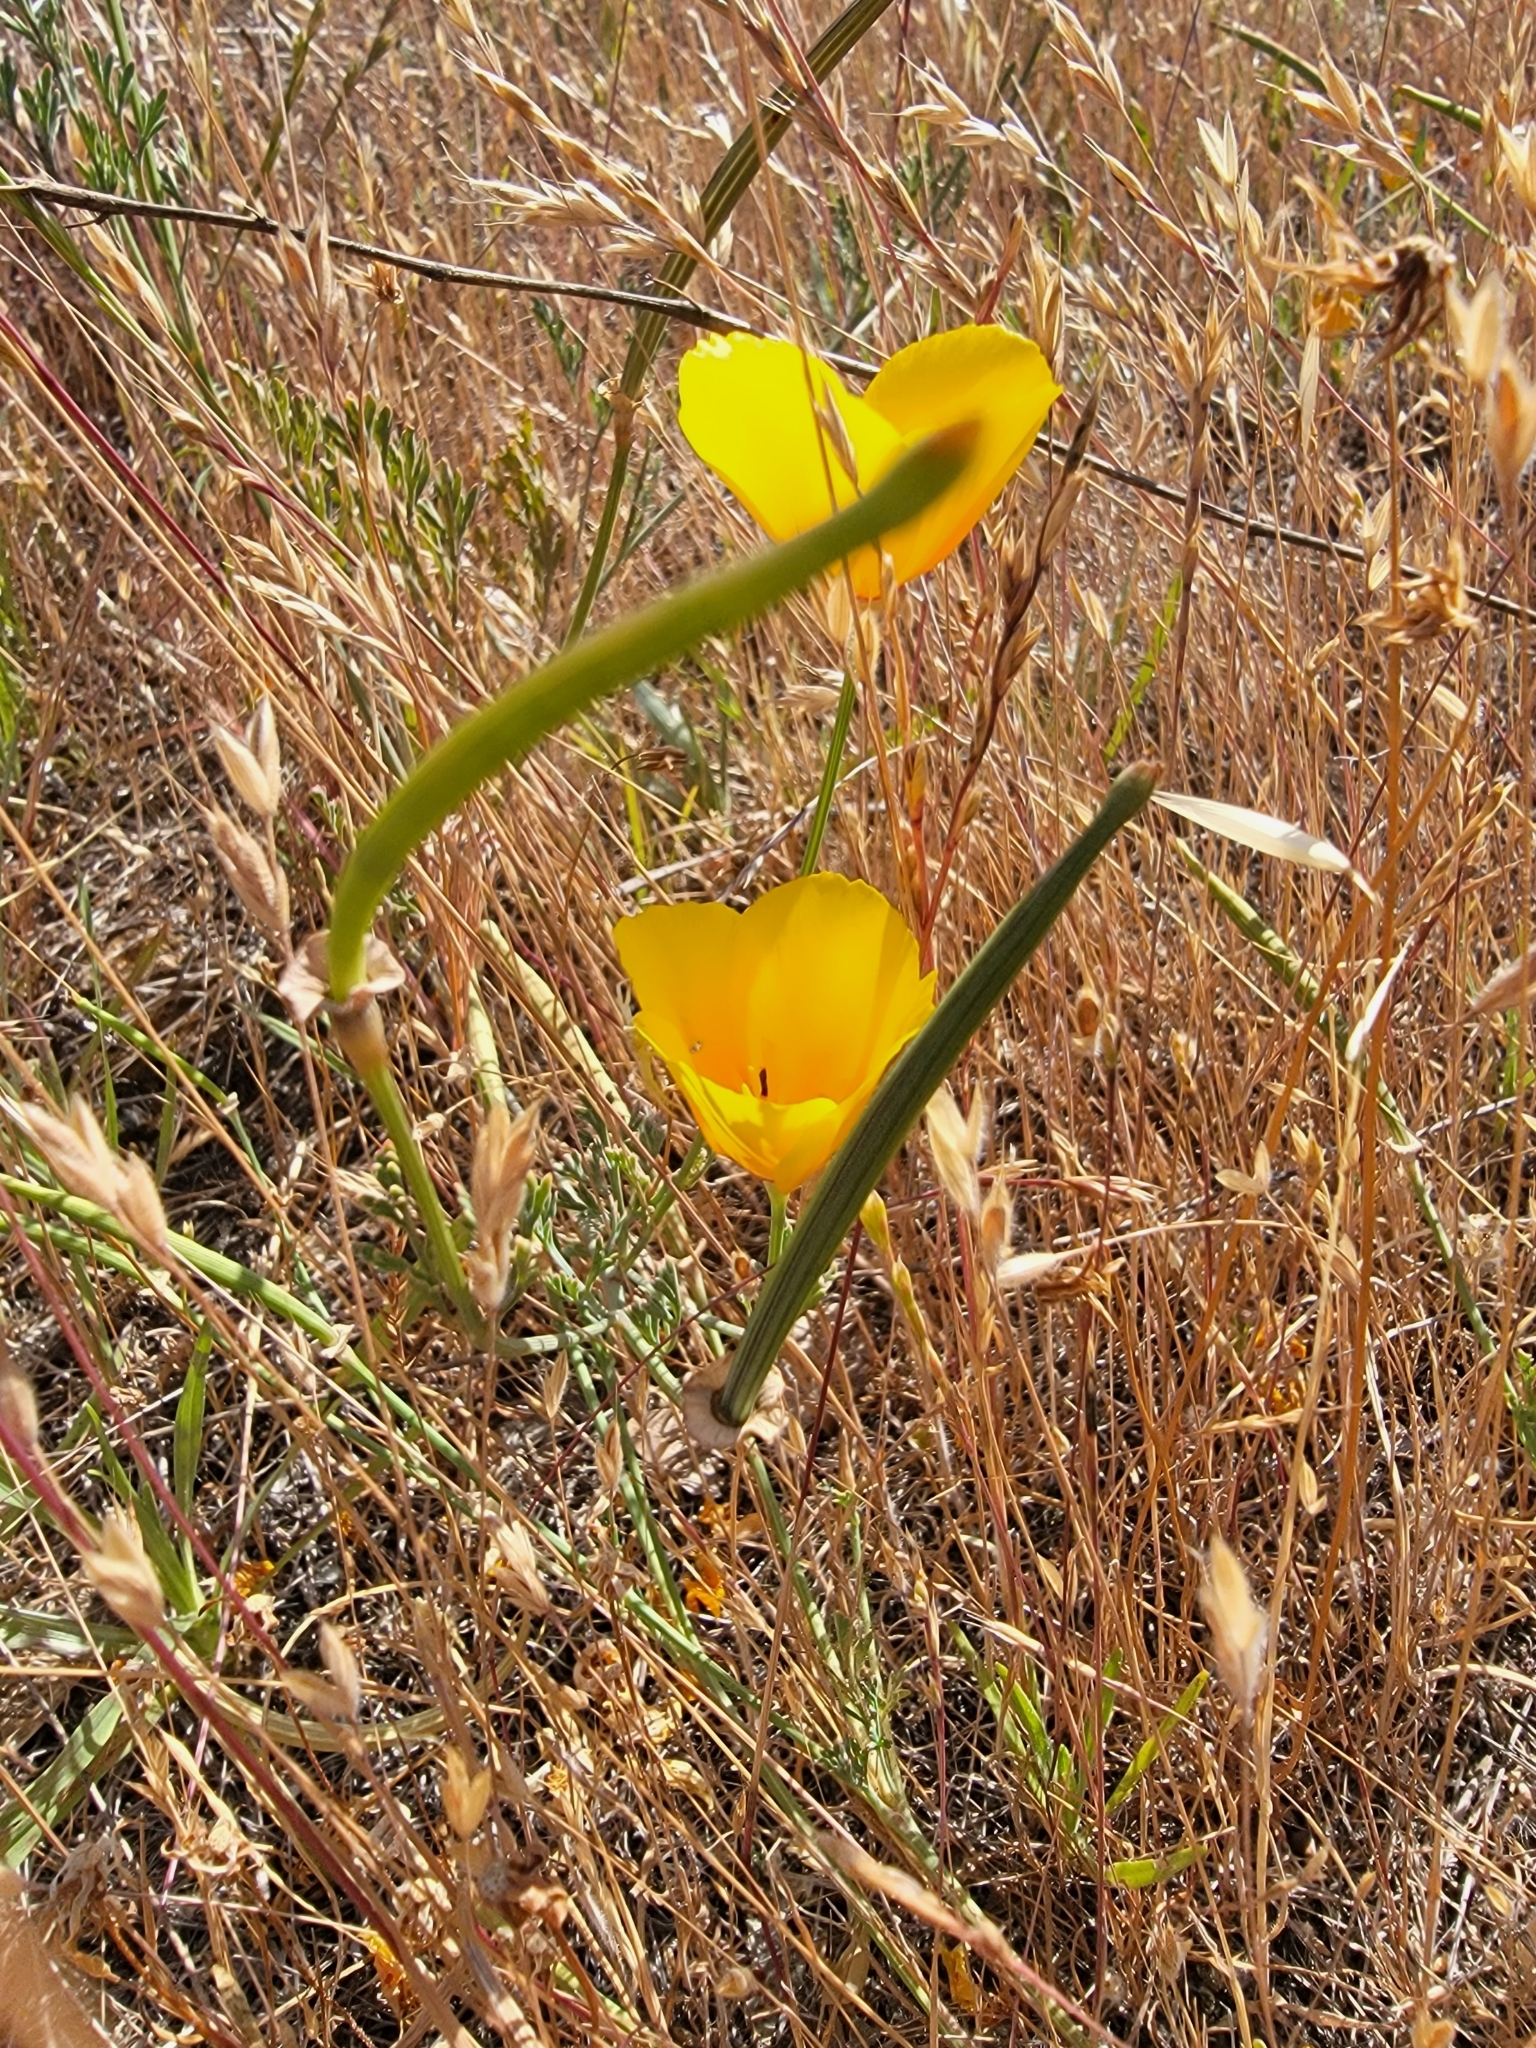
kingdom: Plantae
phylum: Tracheophyta
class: Magnoliopsida
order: Ranunculales
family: Papaveraceae
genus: Eschscholzia
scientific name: Eschscholzia californica
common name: California poppy
